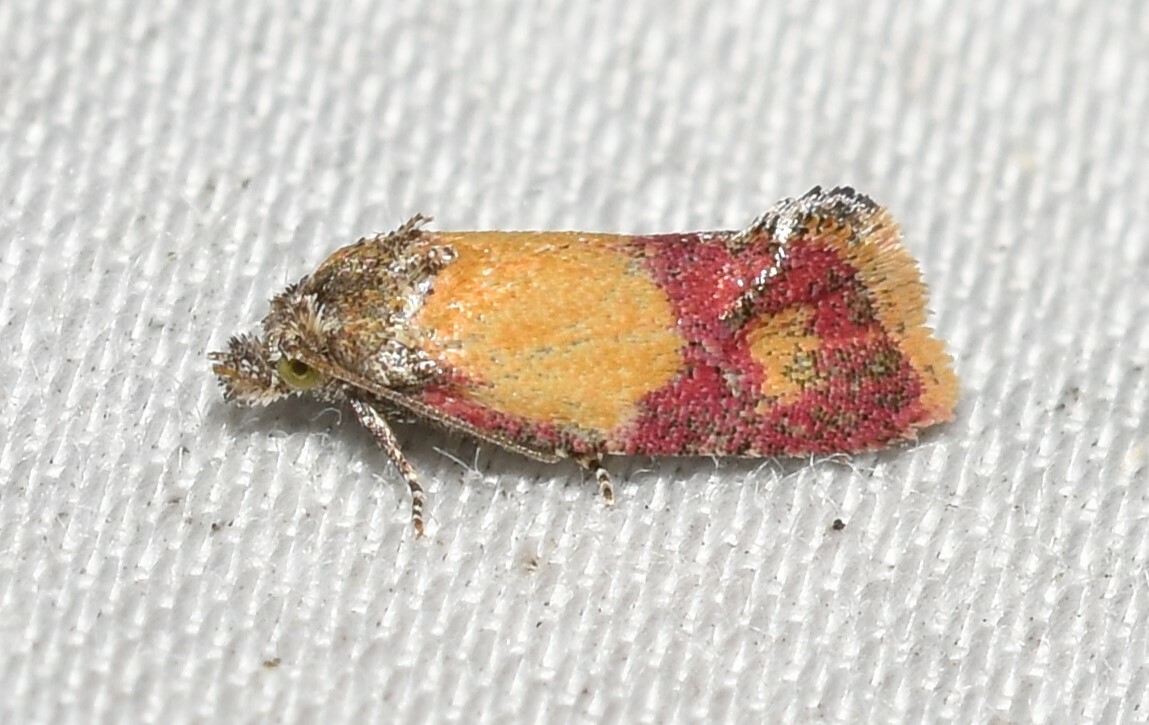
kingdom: Animalia
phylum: Arthropoda
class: Insecta
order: Lepidoptera
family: Tortricidae
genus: Conchylis
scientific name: Conchylis oenotherana
